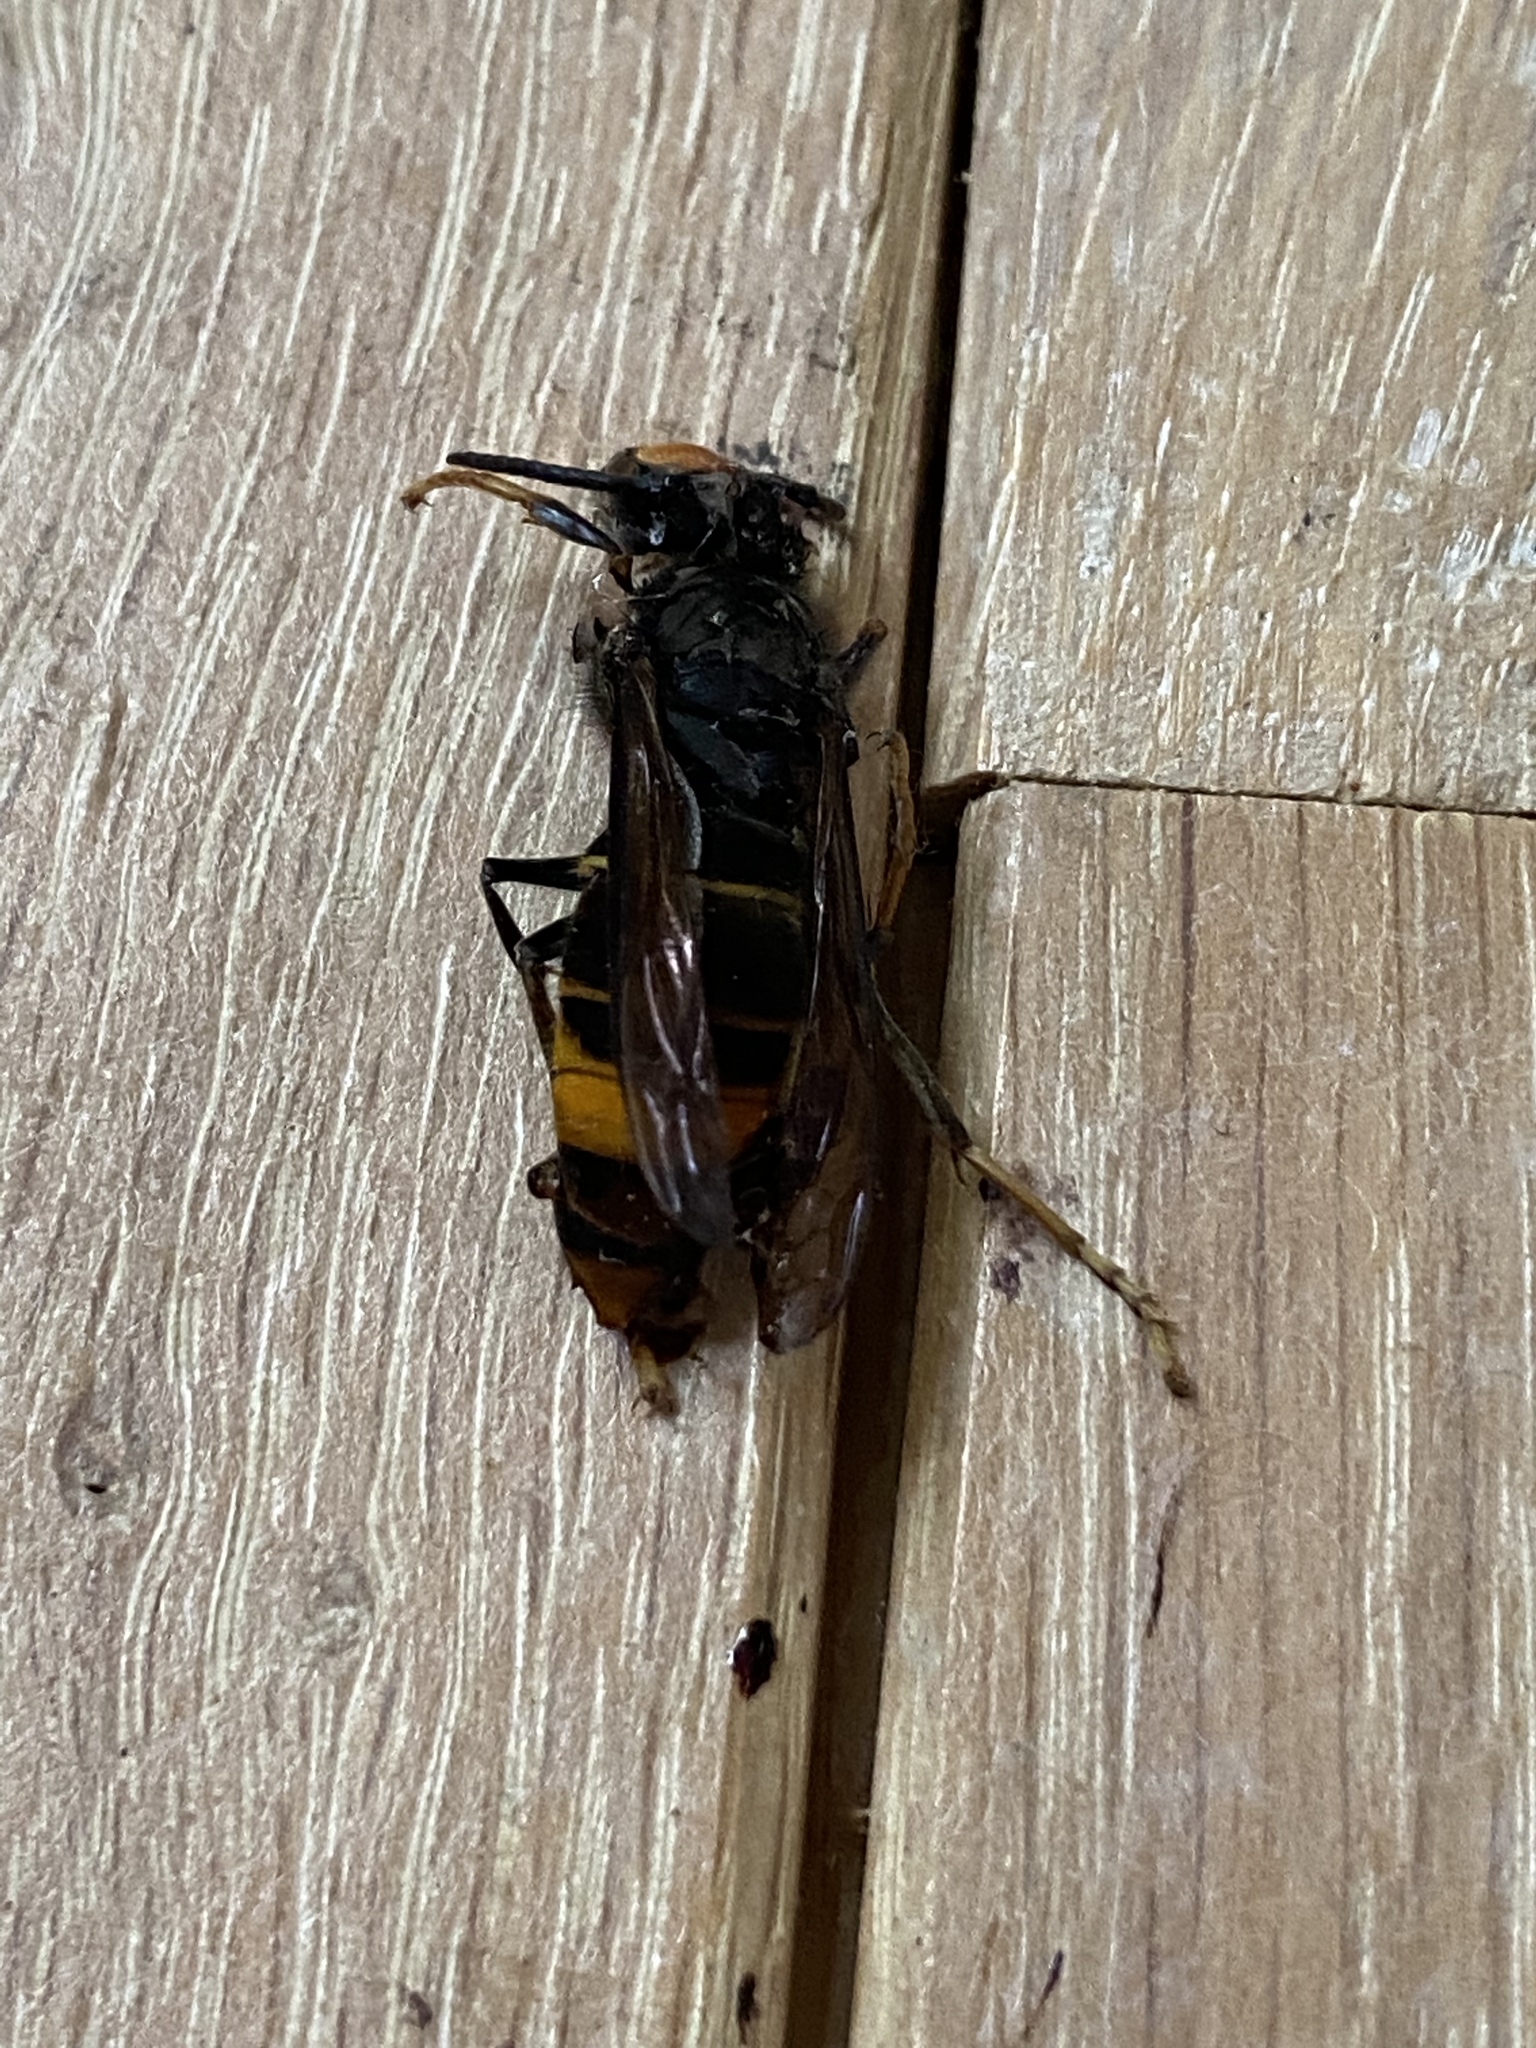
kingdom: Animalia
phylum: Arthropoda
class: Insecta
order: Hymenoptera
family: Vespidae
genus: Vespa
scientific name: Vespa velutina
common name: Asian hornet
